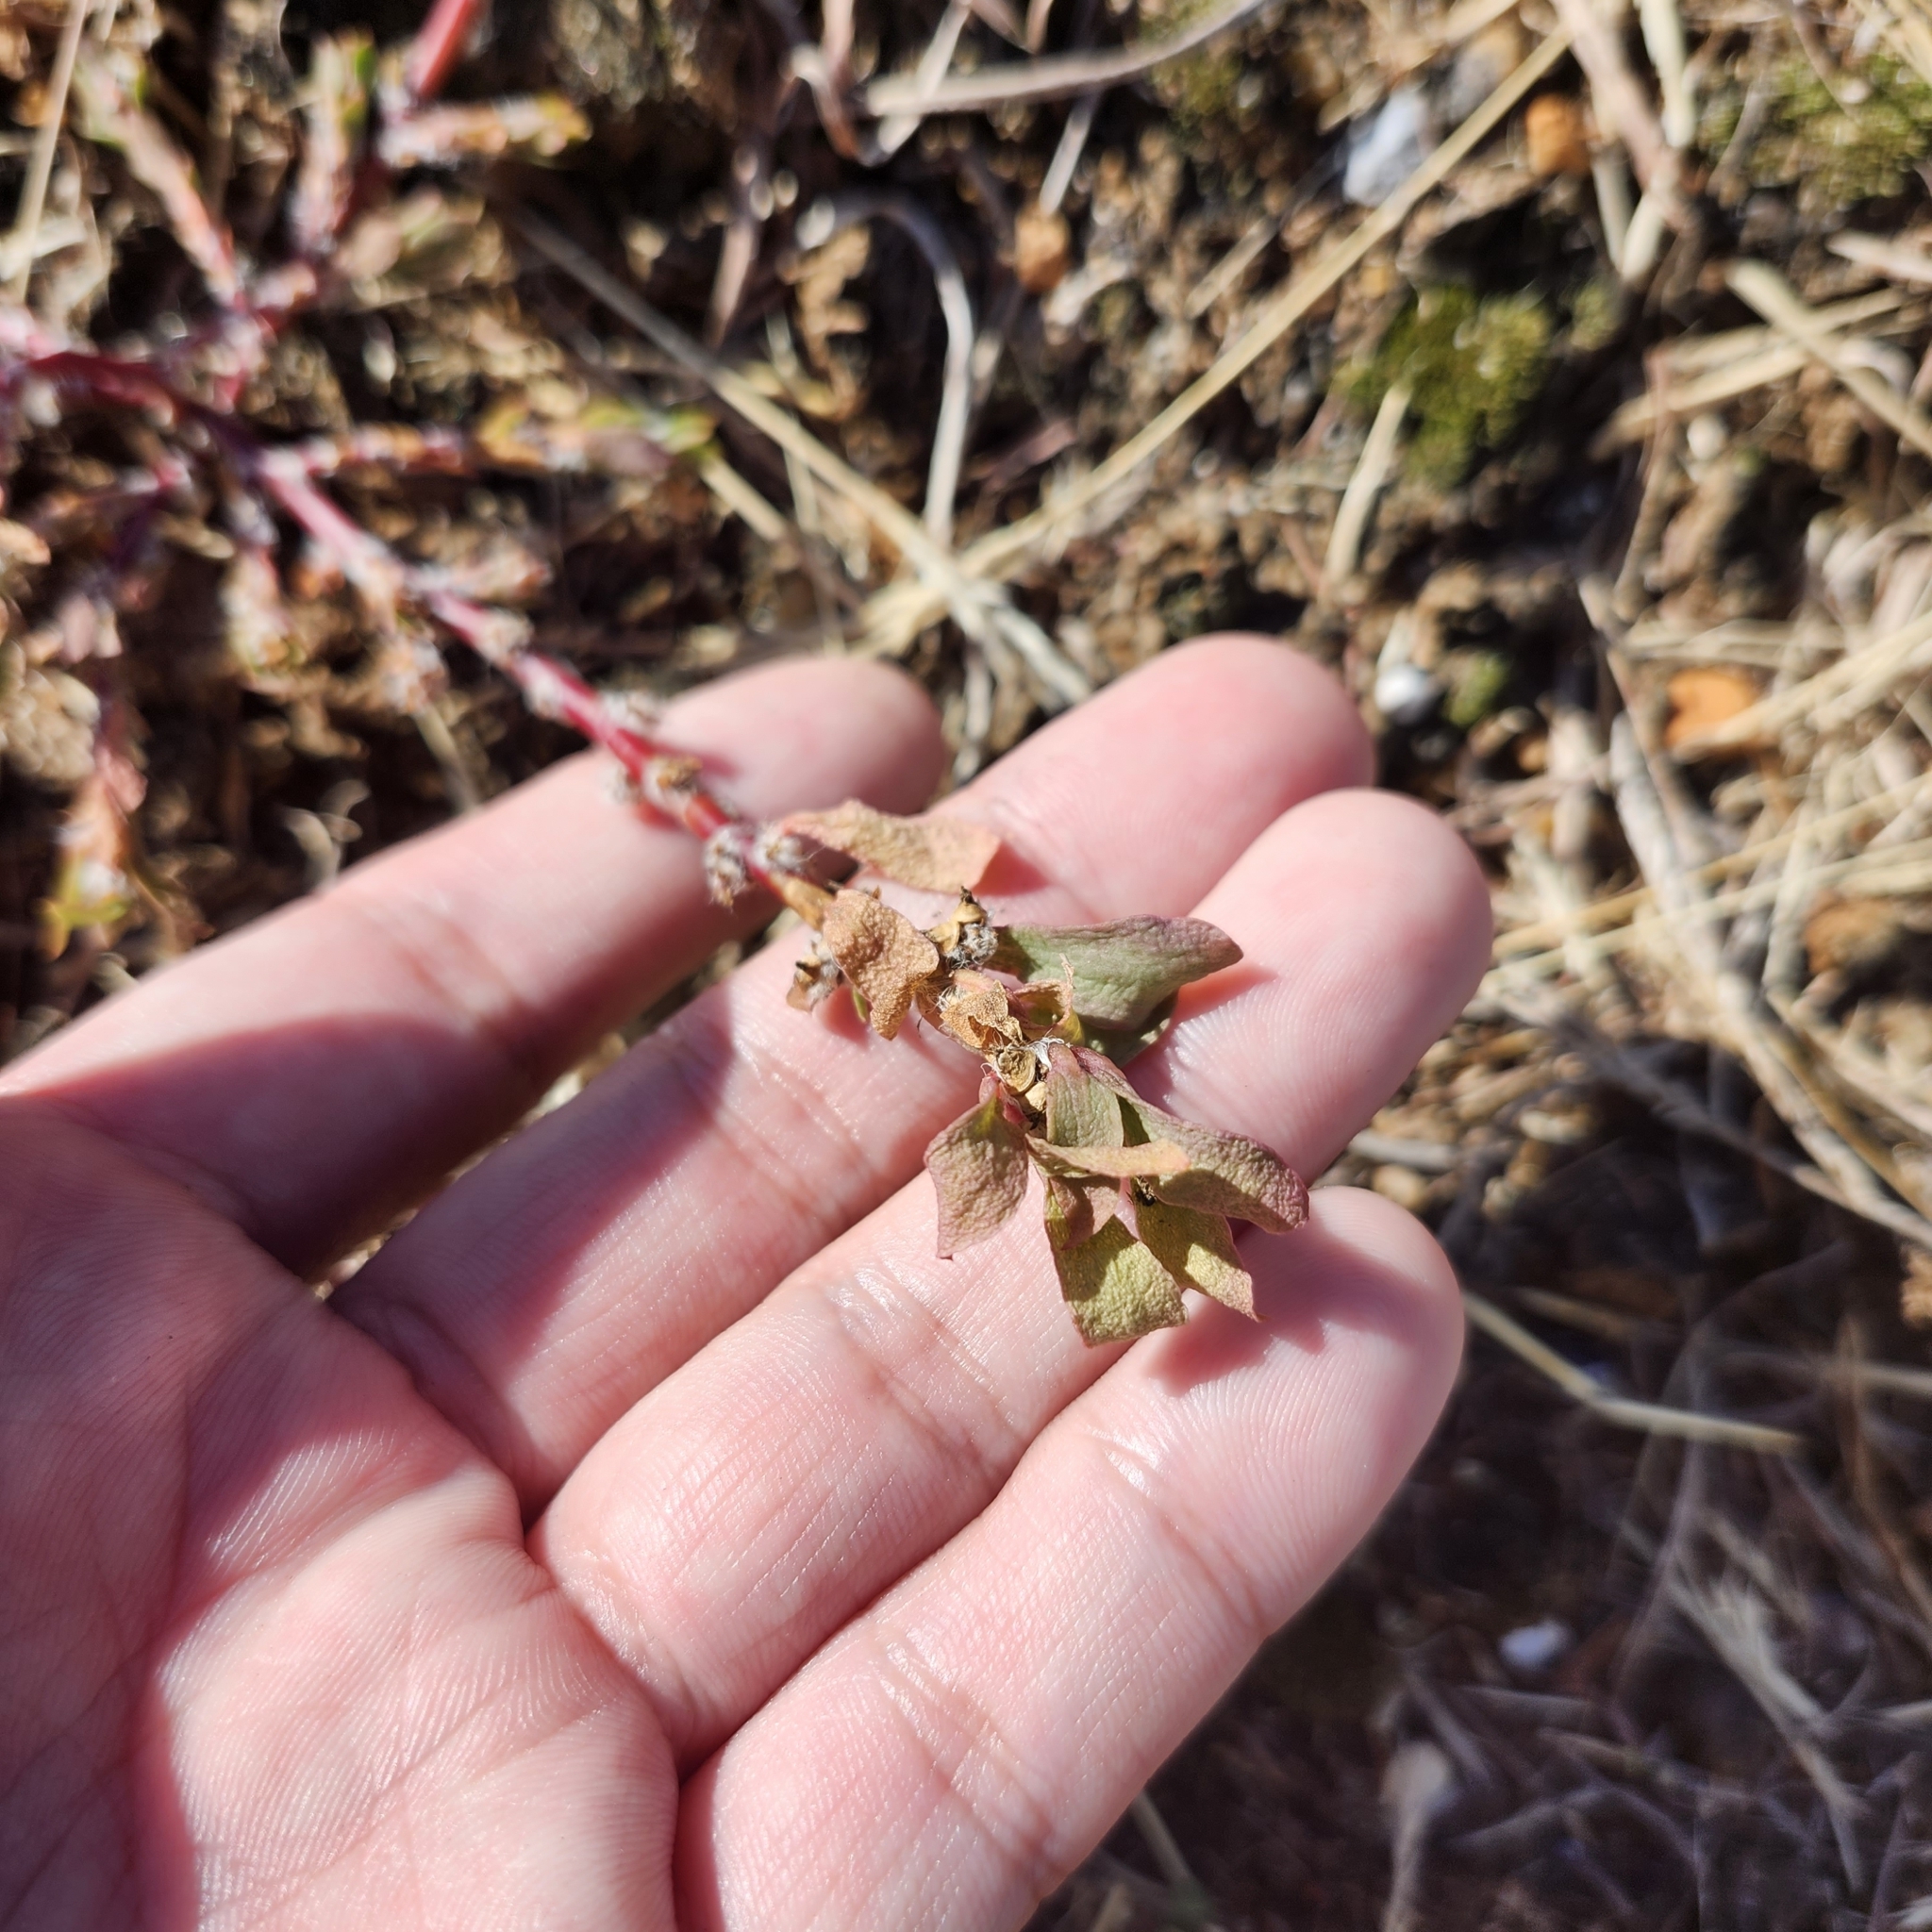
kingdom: Plantae
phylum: Tracheophyta
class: Magnoliopsida
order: Caryophyllales
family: Portulacaceae
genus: Portulaca
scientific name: Portulaca amilis
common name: Paraguayan purslane
